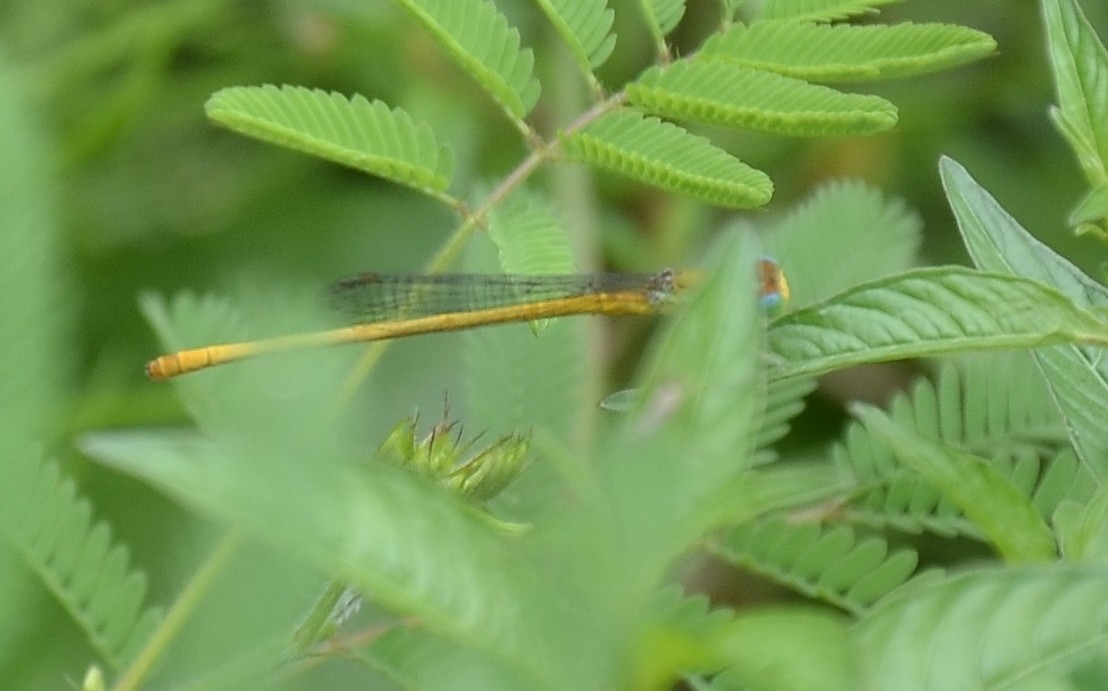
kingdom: Animalia
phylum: Arthropoda
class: Insecta
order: Odonata
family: Coenagrionidae
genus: Ceriagrion
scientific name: Ceriagrion coromandelianum
